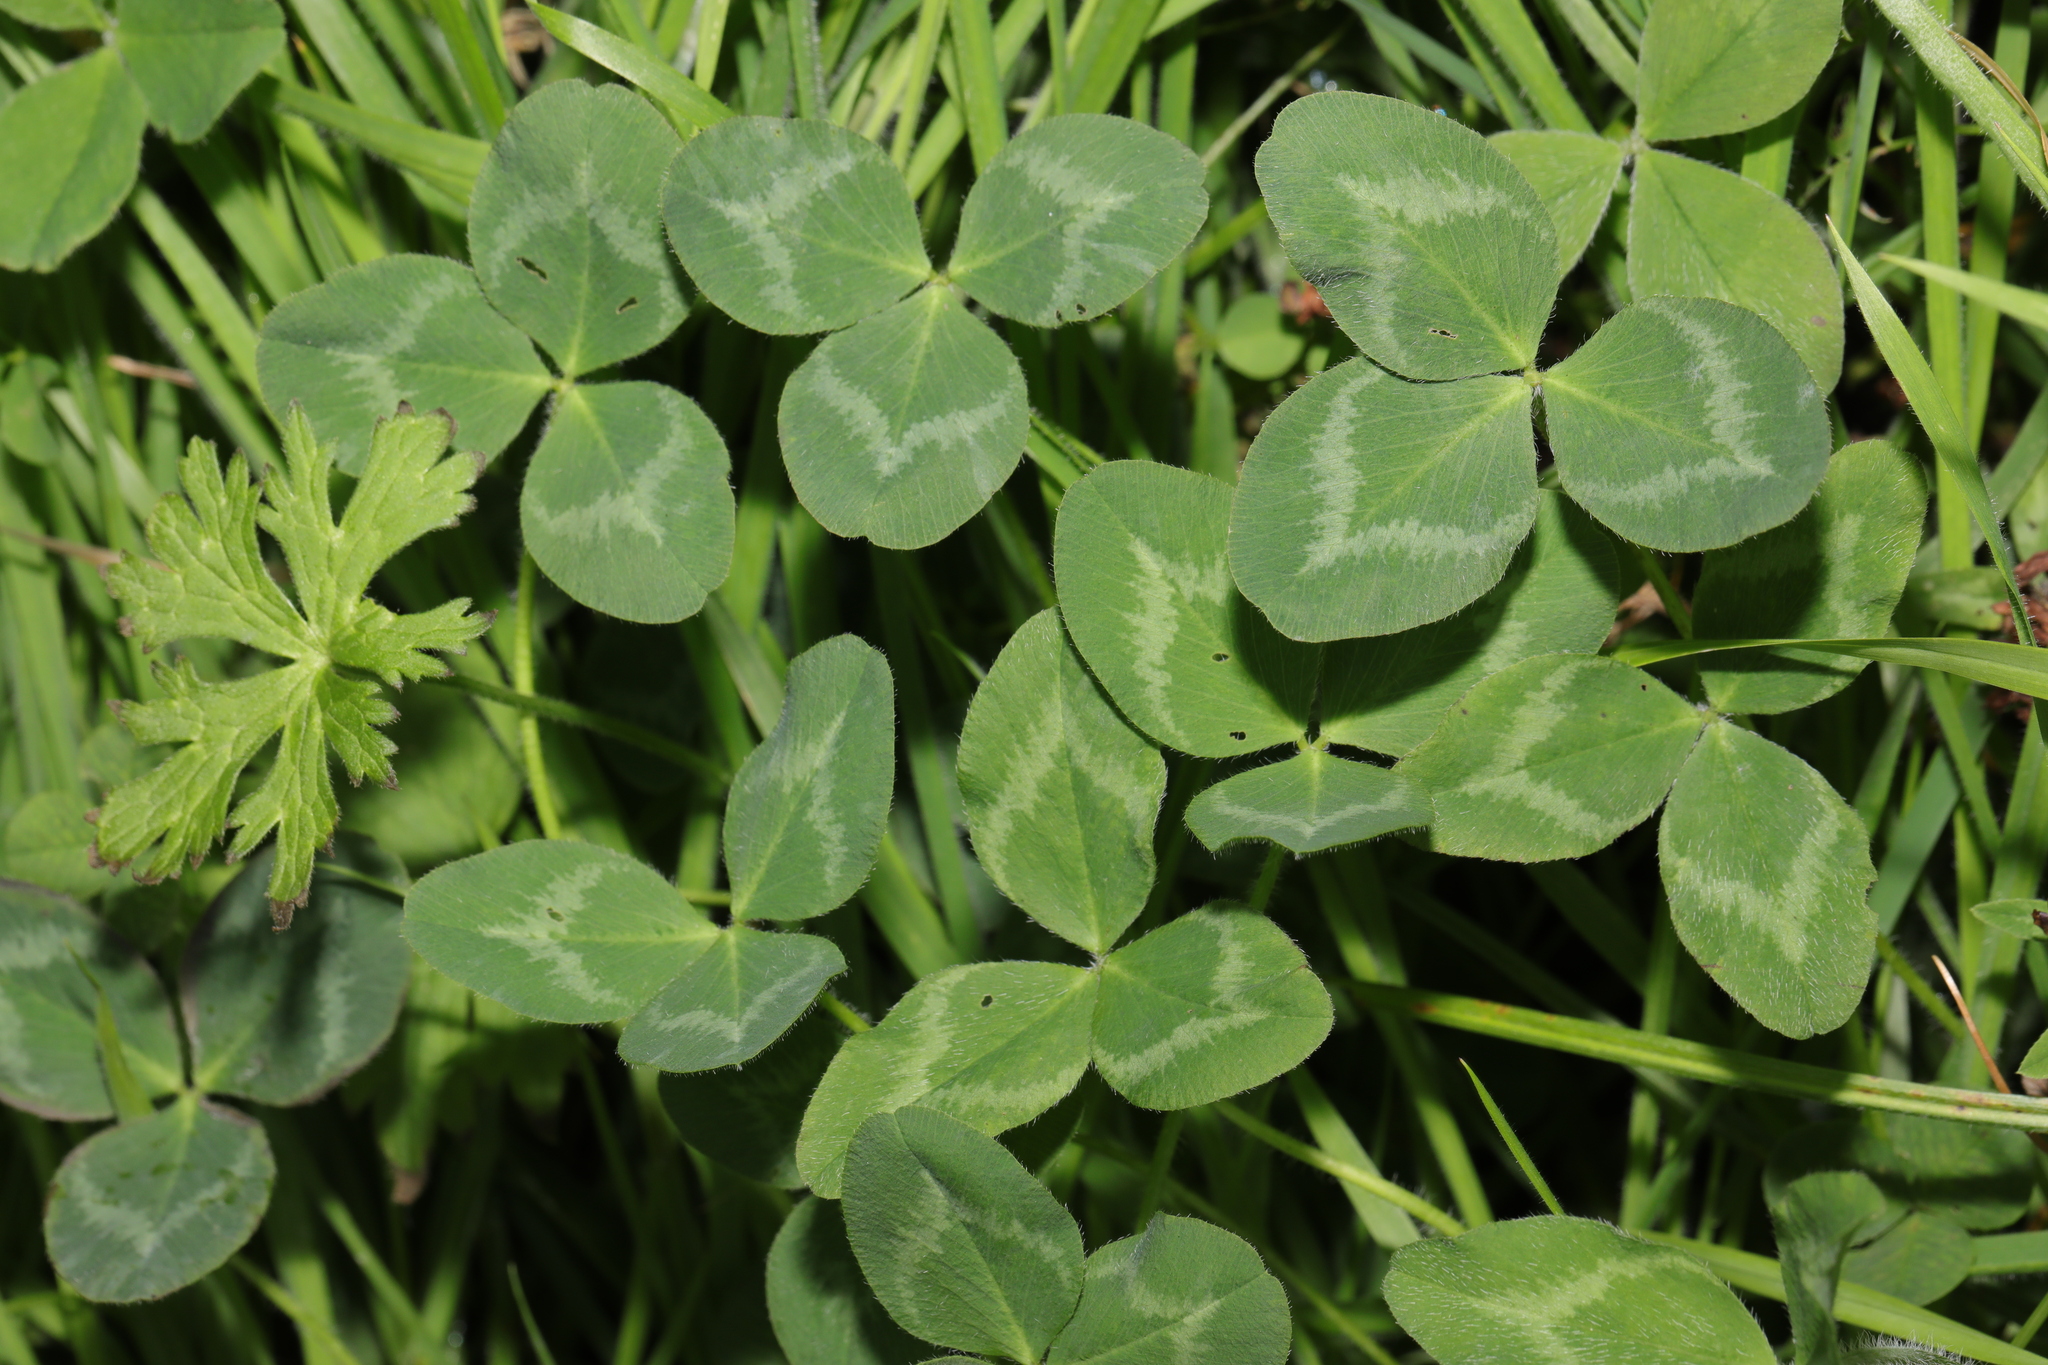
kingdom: Plantae
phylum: Tracheophyta
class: Magnoliopsida
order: Fabales
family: Fabaceae
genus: Trifolium
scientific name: Trifolium repens
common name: White clover
